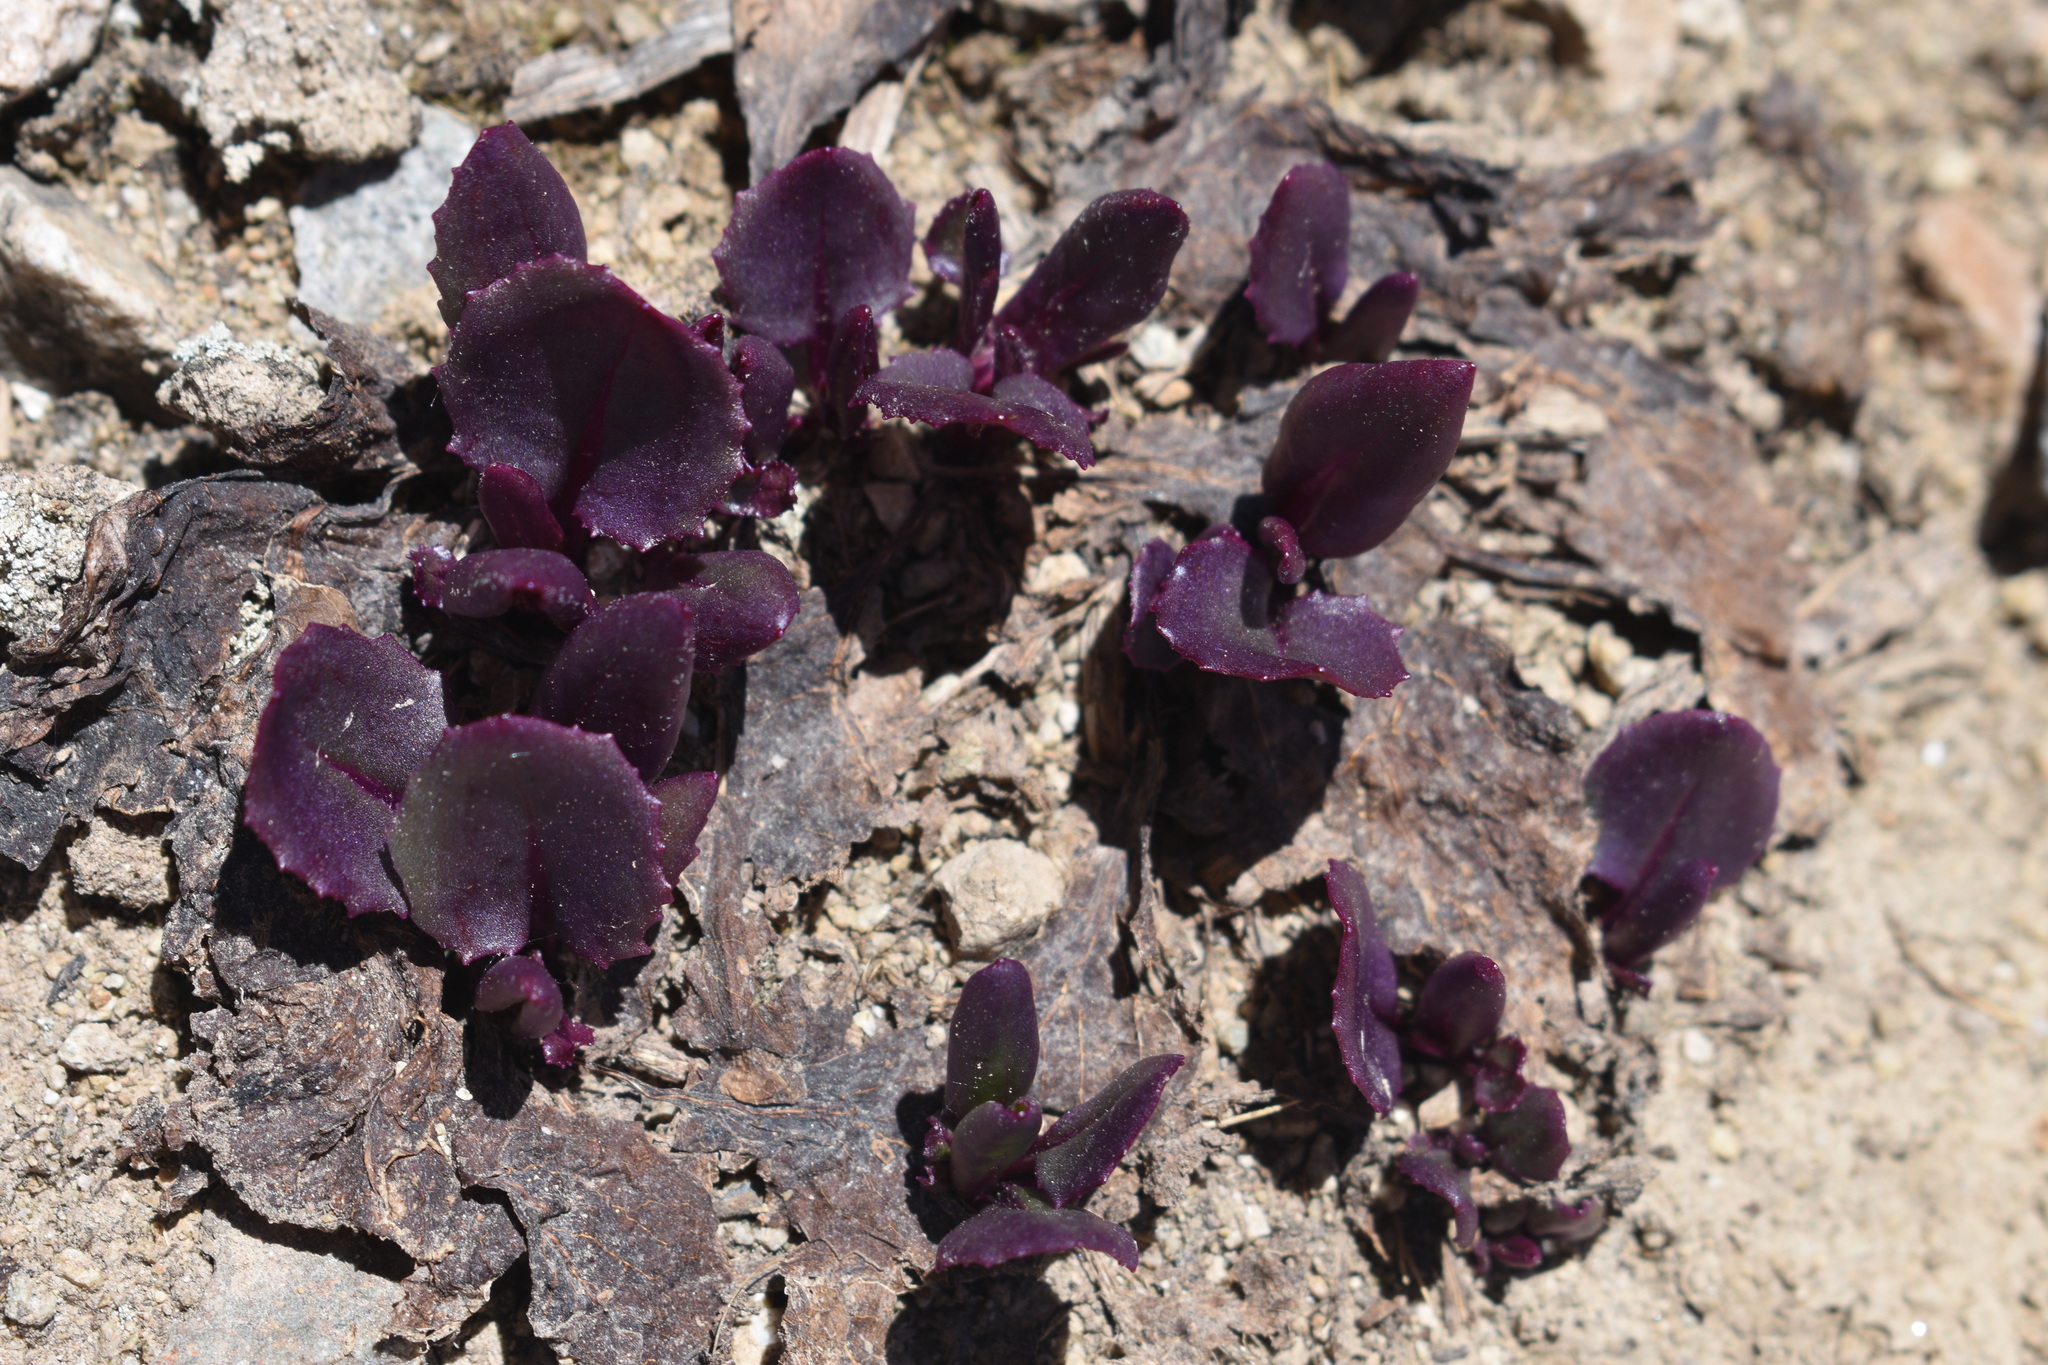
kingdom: Plantae
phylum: Tracheophyta
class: Magnoliopsida
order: Asterales
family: Asteraceae
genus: Senecio
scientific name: Senecio soldanella
